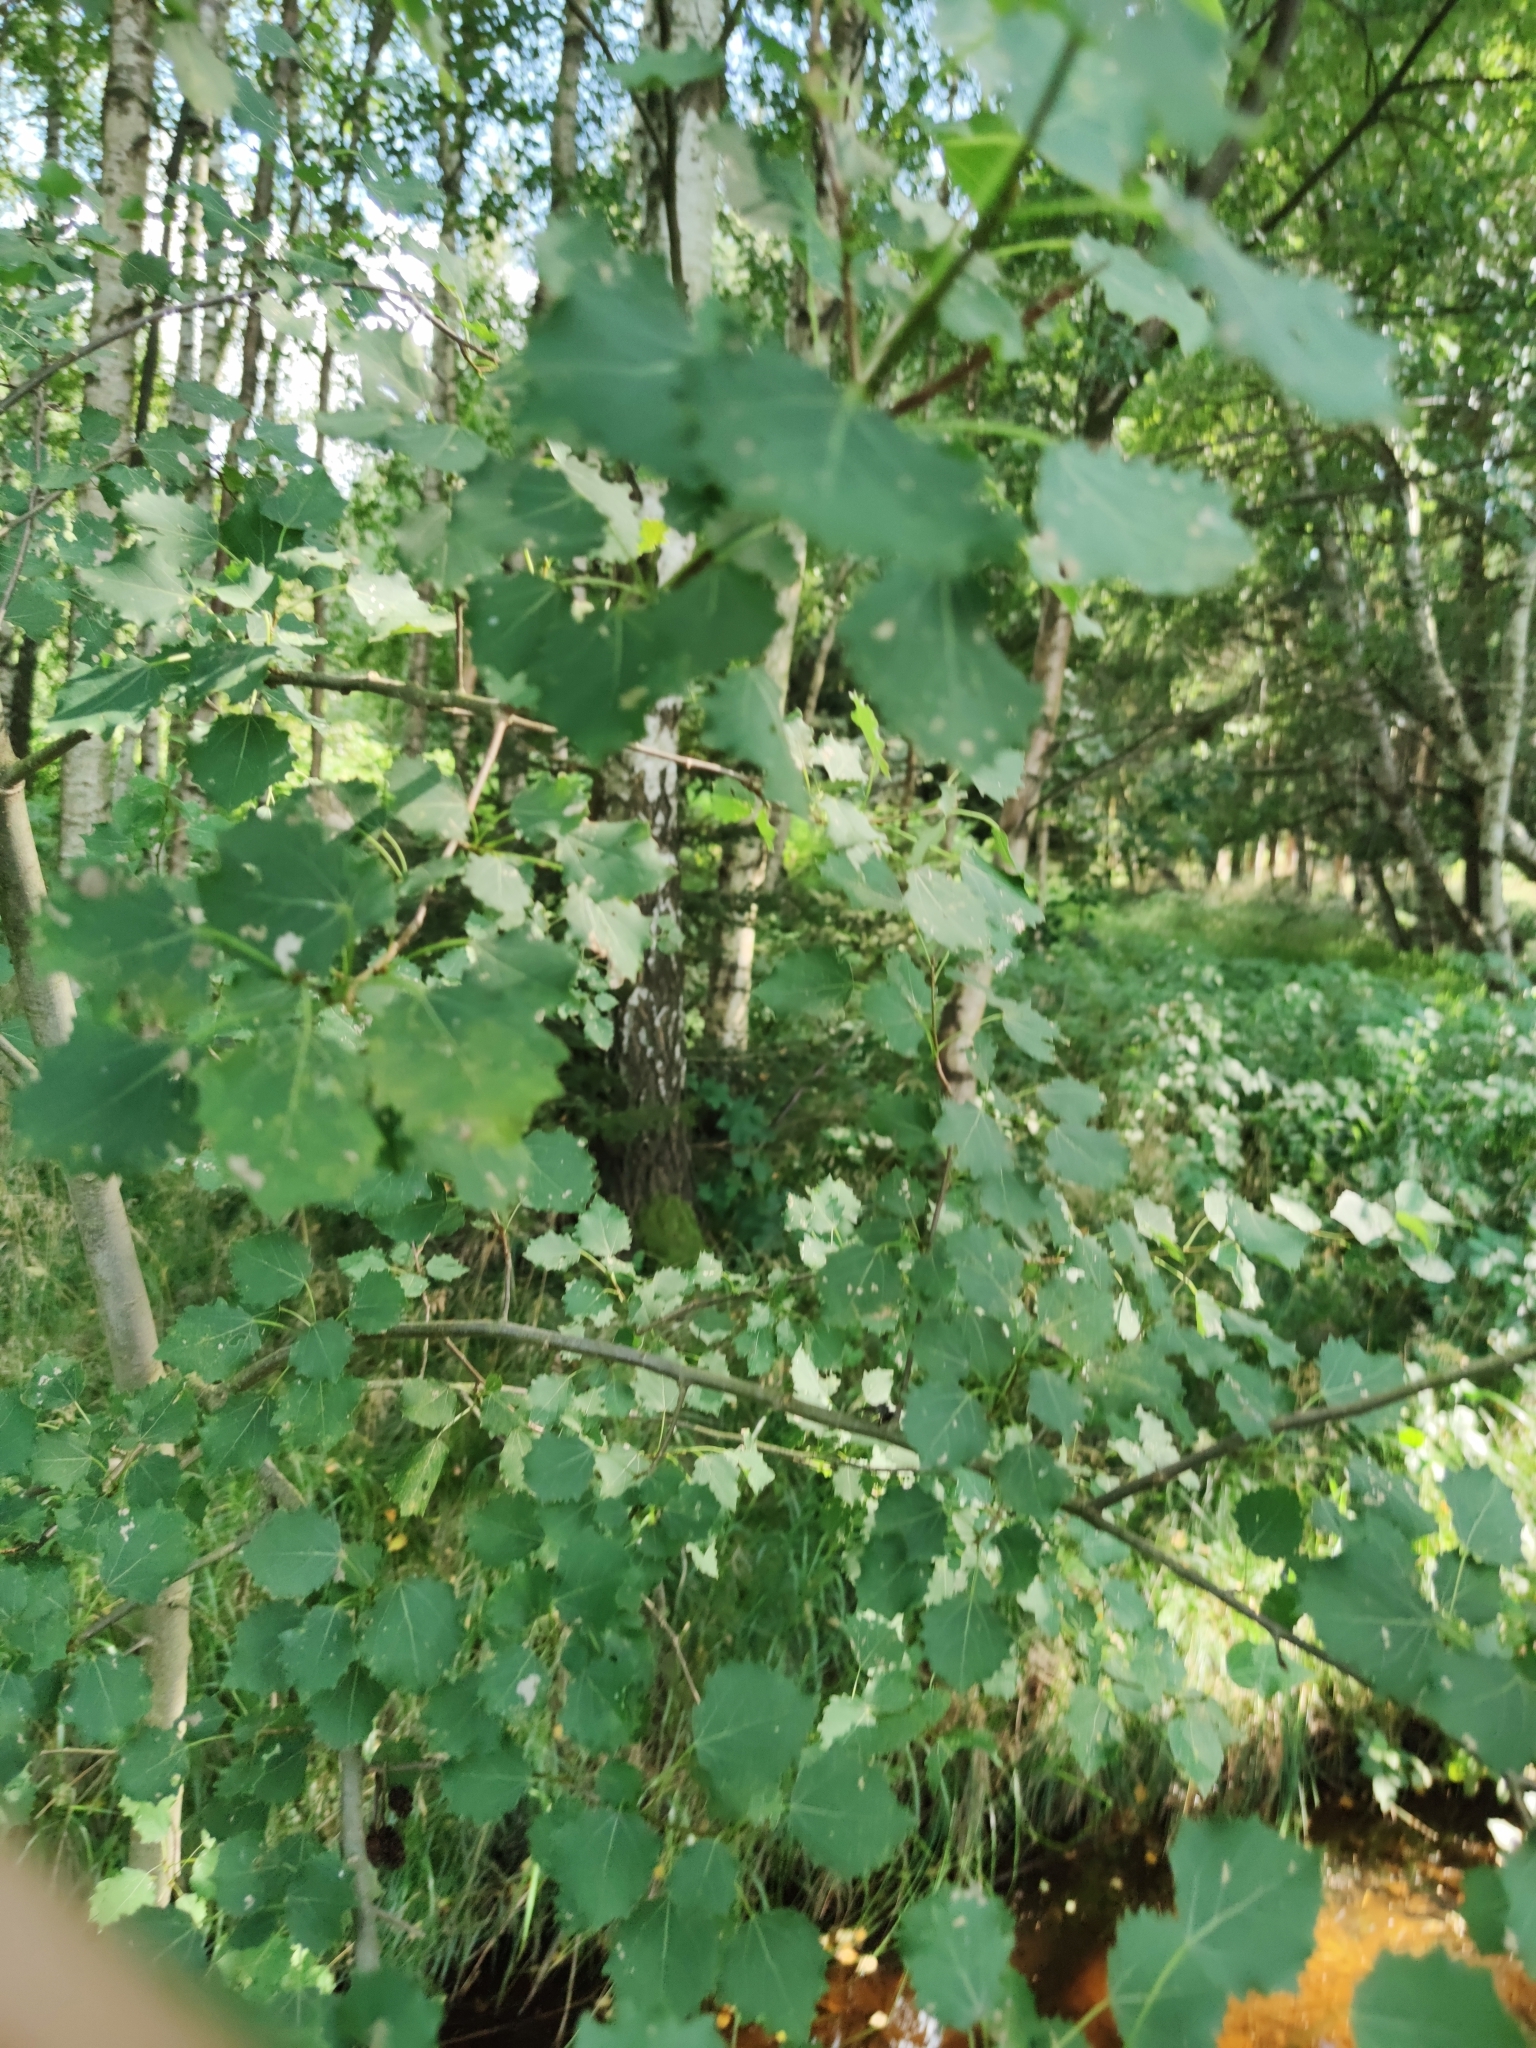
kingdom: Plantae
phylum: Tracheophyta
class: Magnoliopsida
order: Malpighiales
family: Salicaceae
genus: Populus
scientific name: Populus tremula
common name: European aspen
